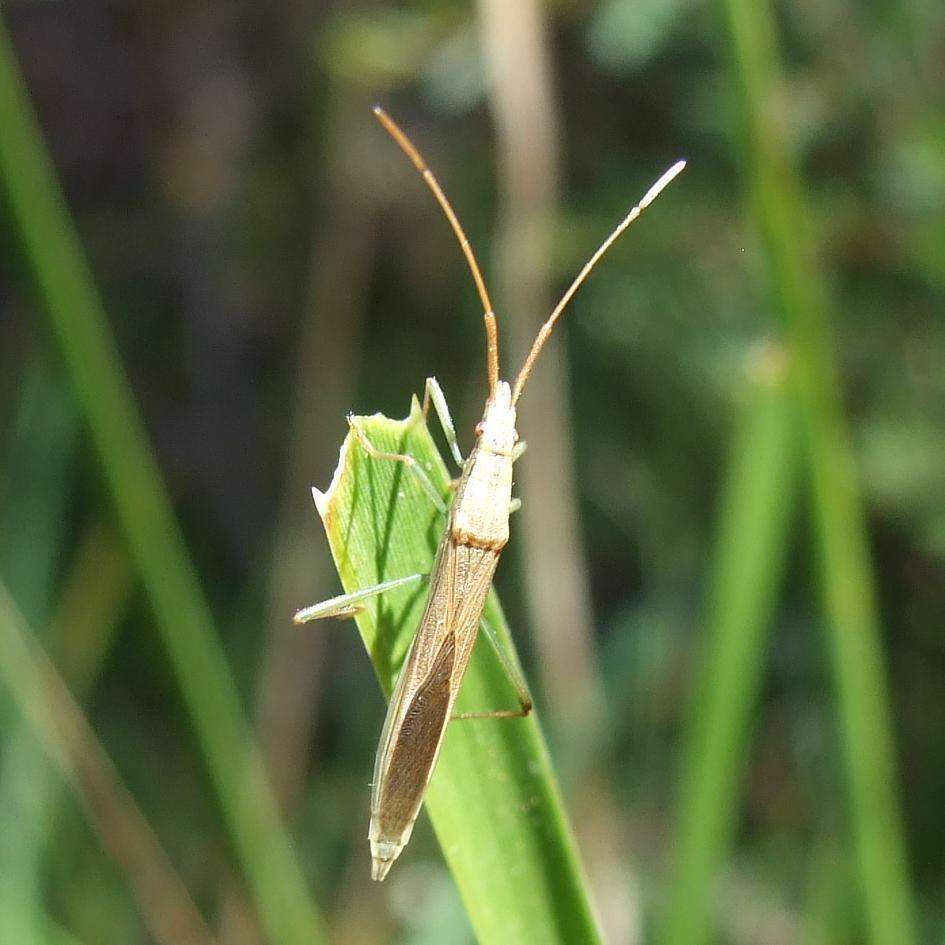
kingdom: Animalia
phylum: Arthropoda
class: Insecta
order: Hemiptera
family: Alydidae
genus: Mutusca
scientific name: Mutusca brevicornis
